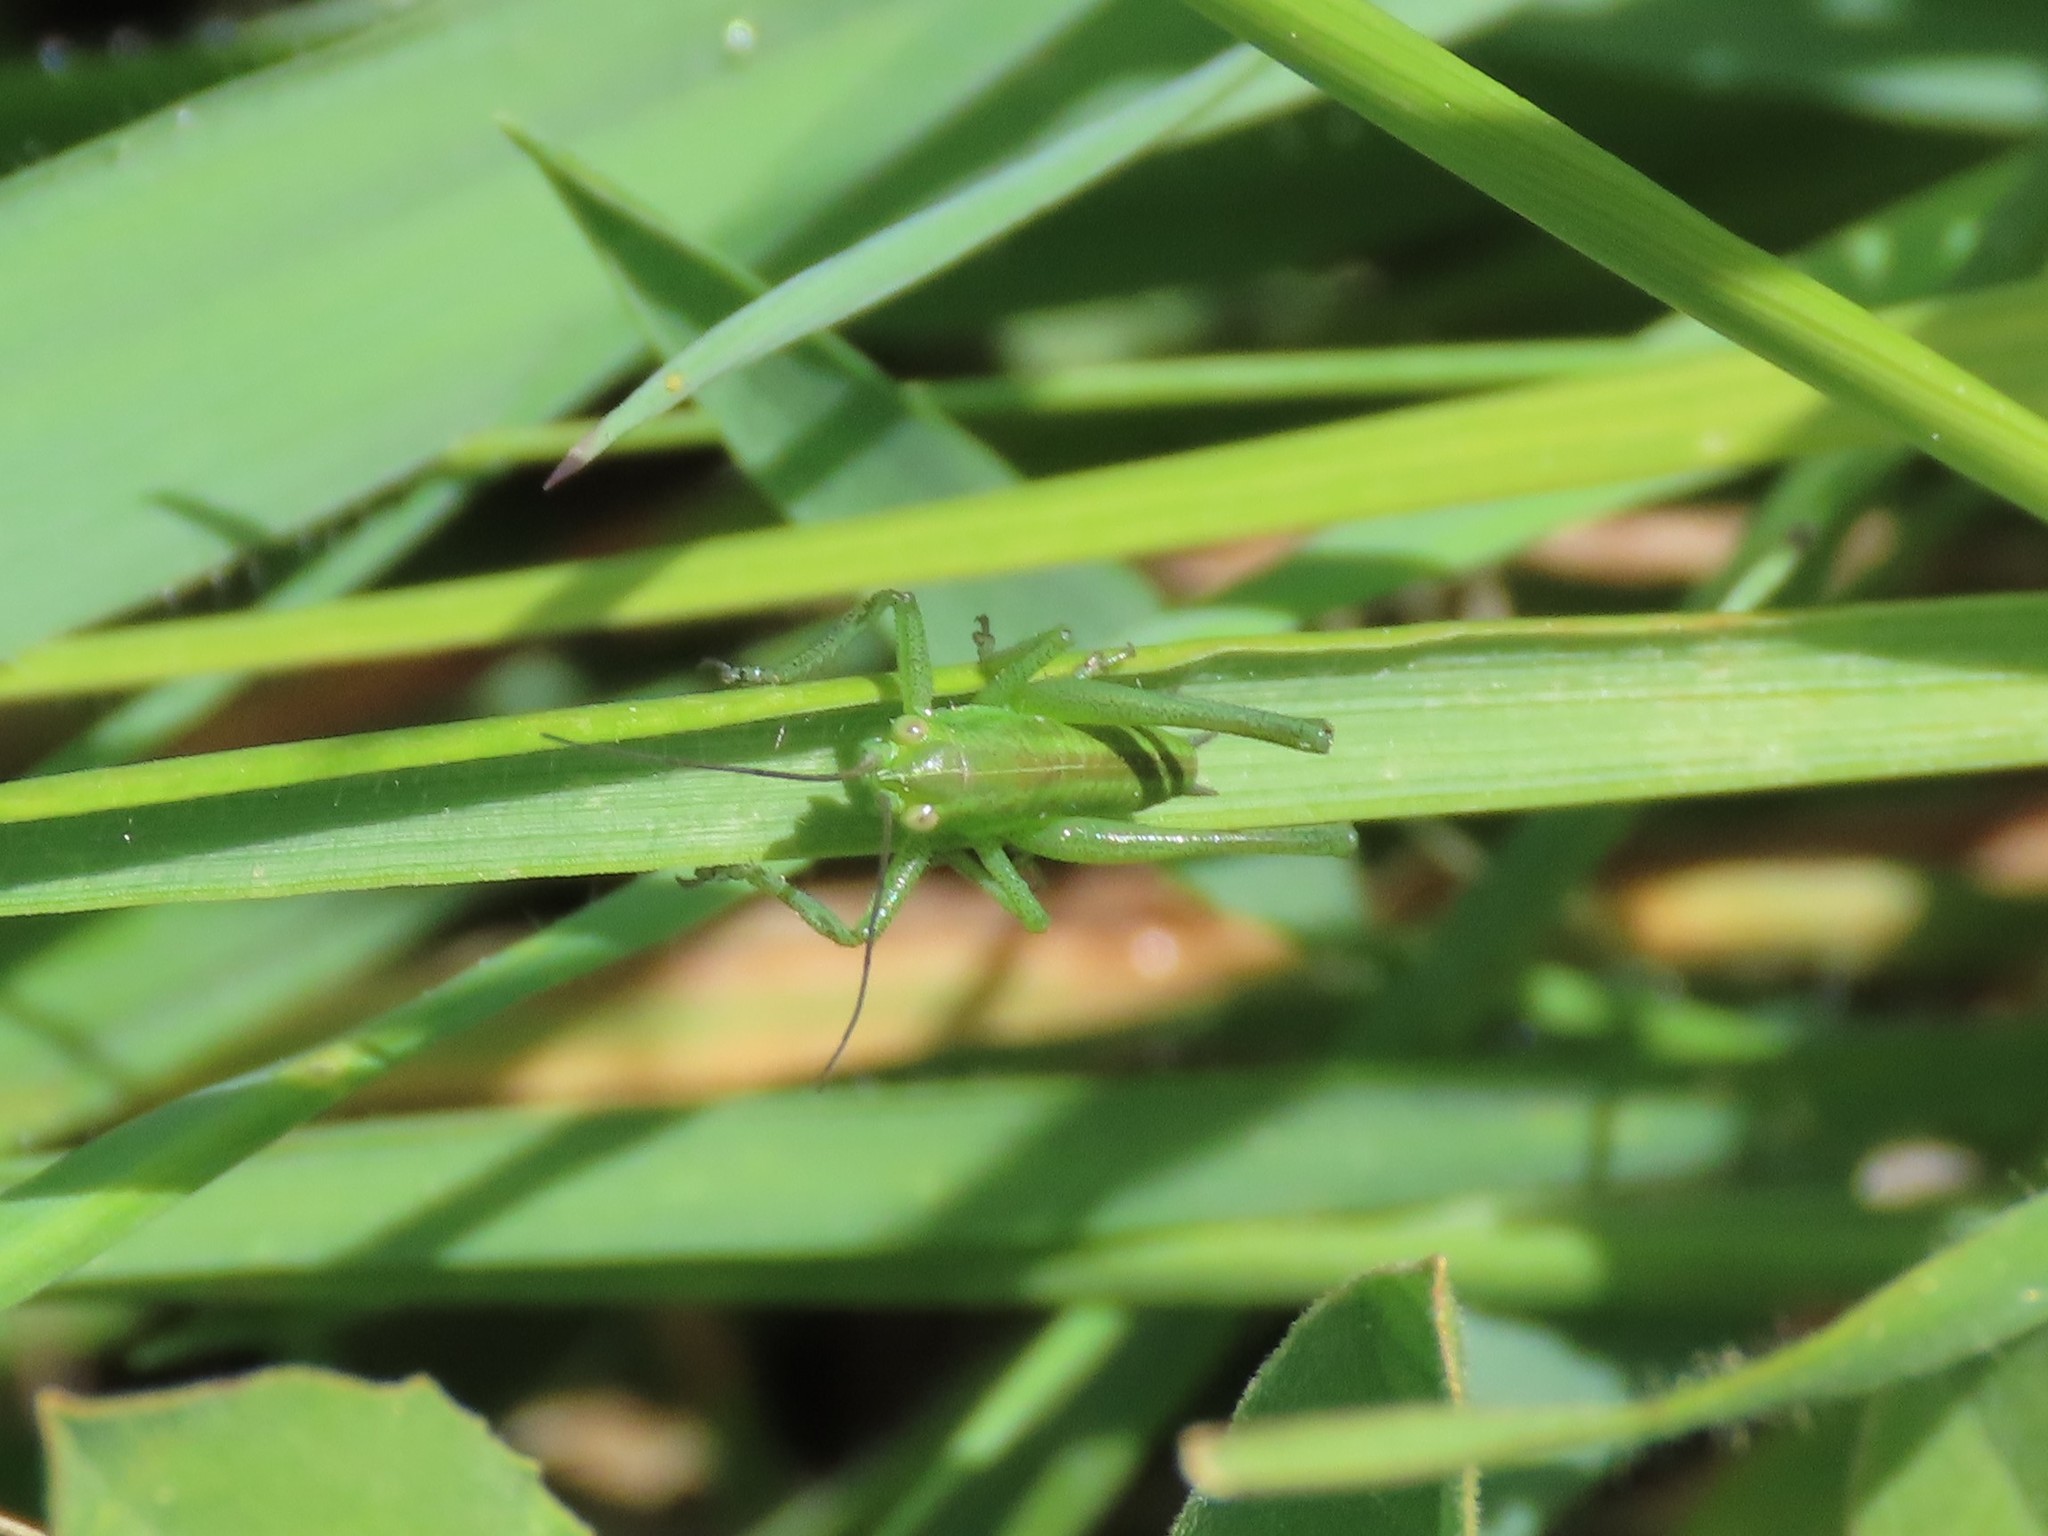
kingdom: Animalia
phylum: Arthropoda
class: Insecta
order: Orthoptera
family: Tettigoniidae
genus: Tettigonia
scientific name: Tettigonia viridissima
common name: Great green bush-cricket
